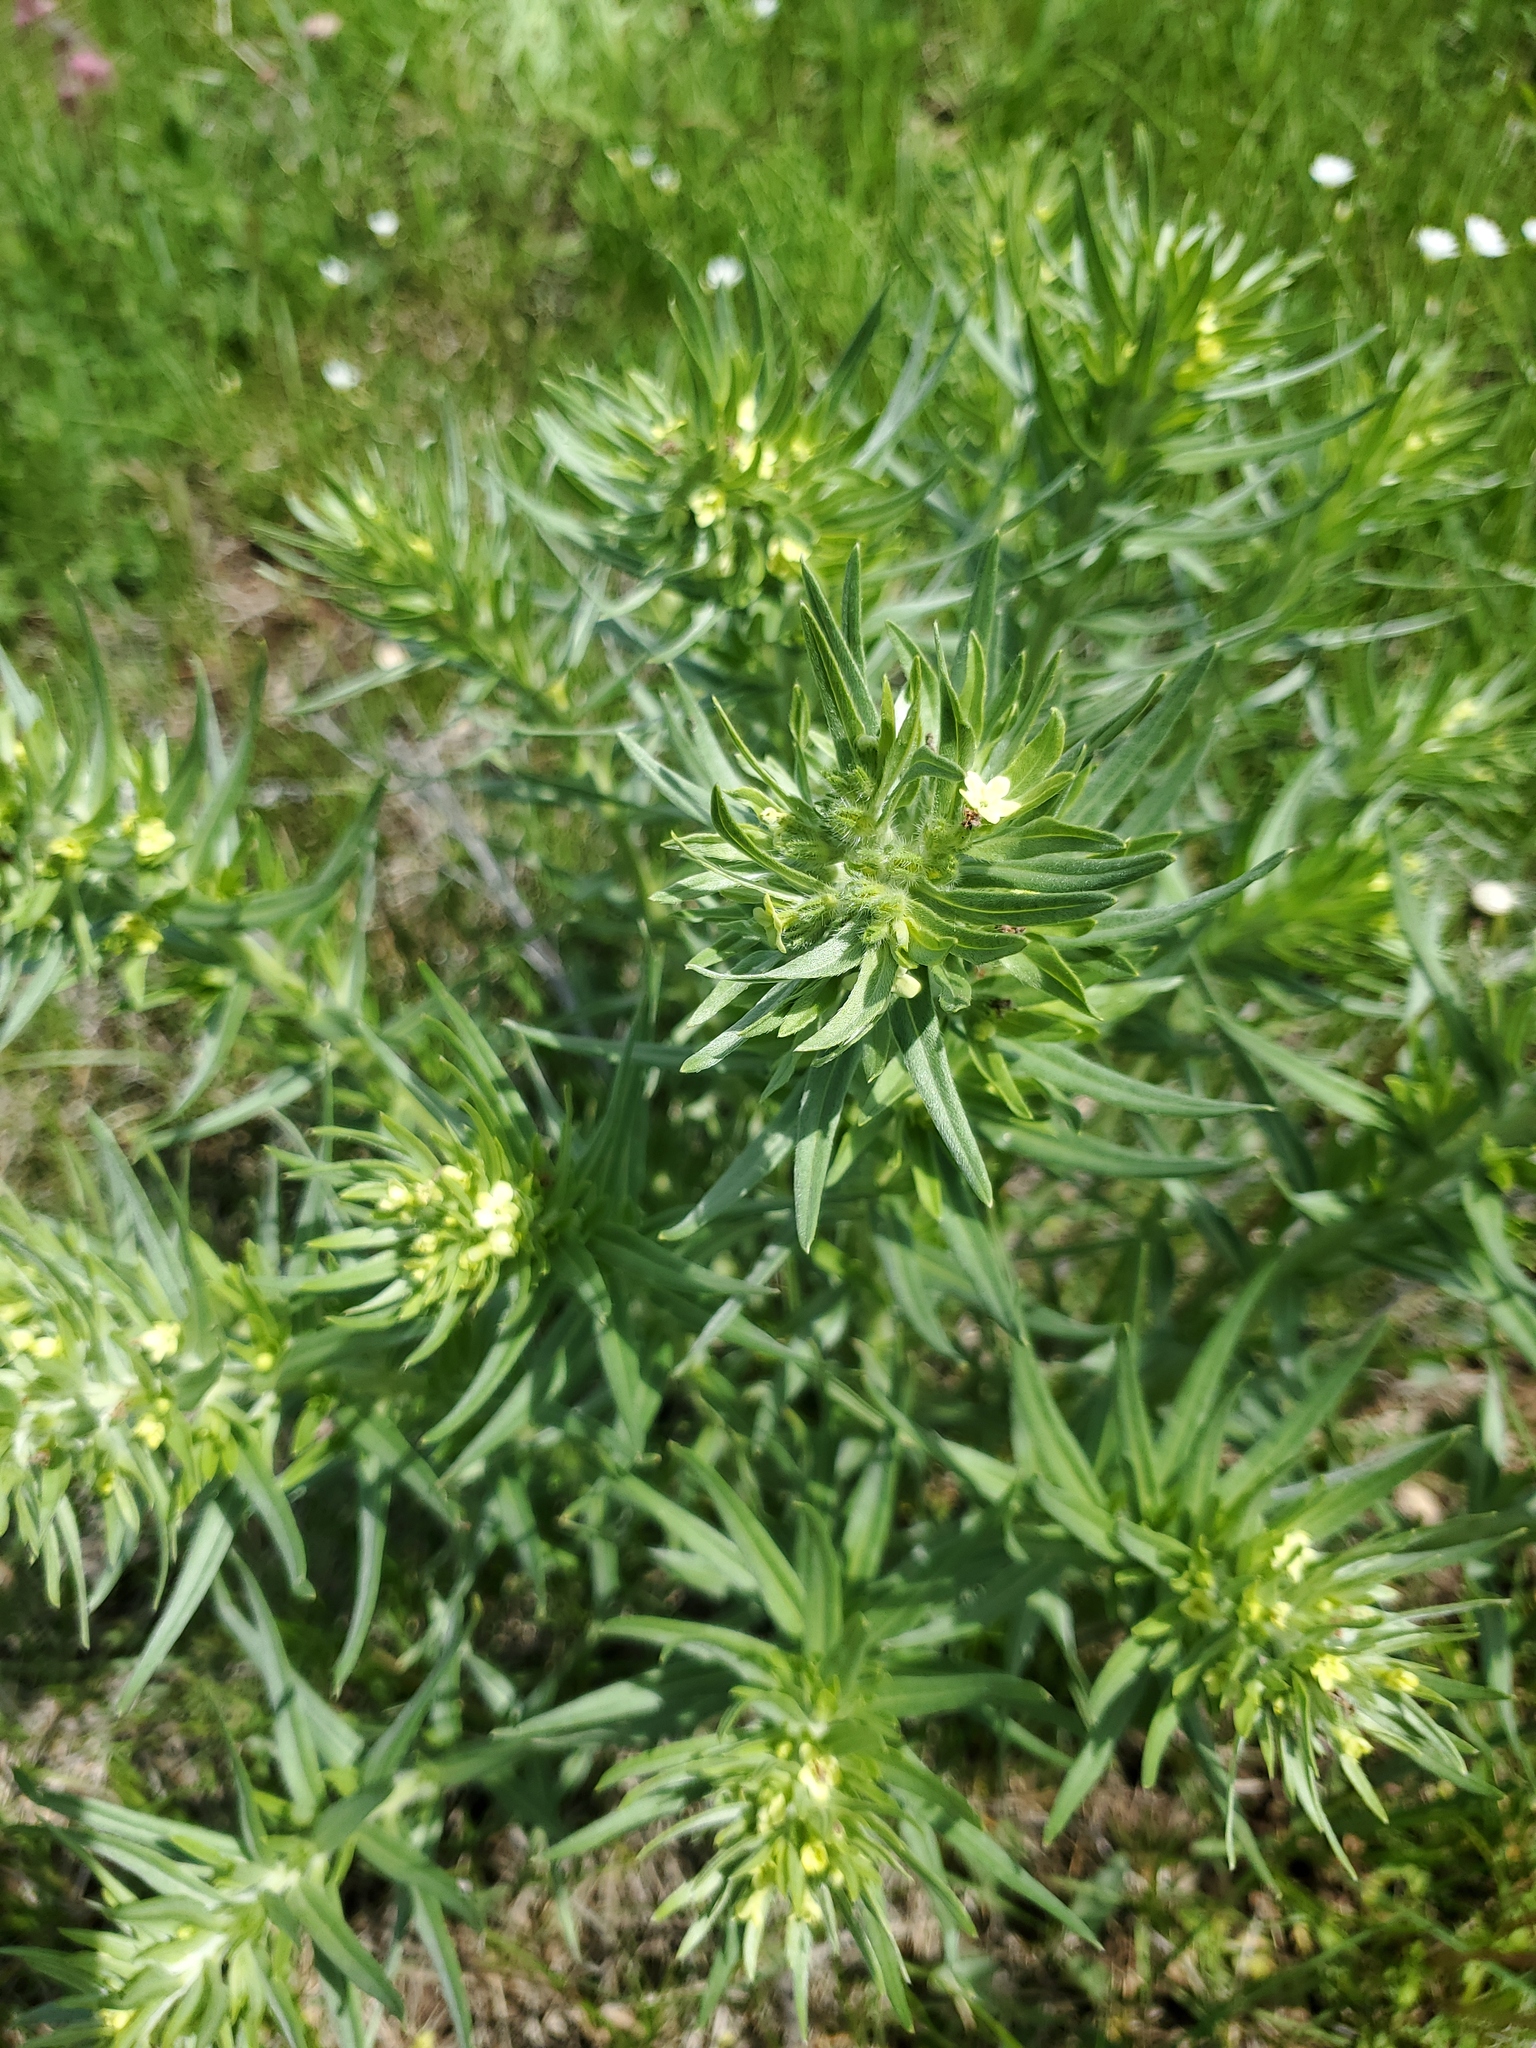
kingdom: Plantae
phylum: Tracheophyta
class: Magnoliopsida
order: Boraginales
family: Boraginaceae
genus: Lithospermum
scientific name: Lithospermum ruderale
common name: Western gromwell
